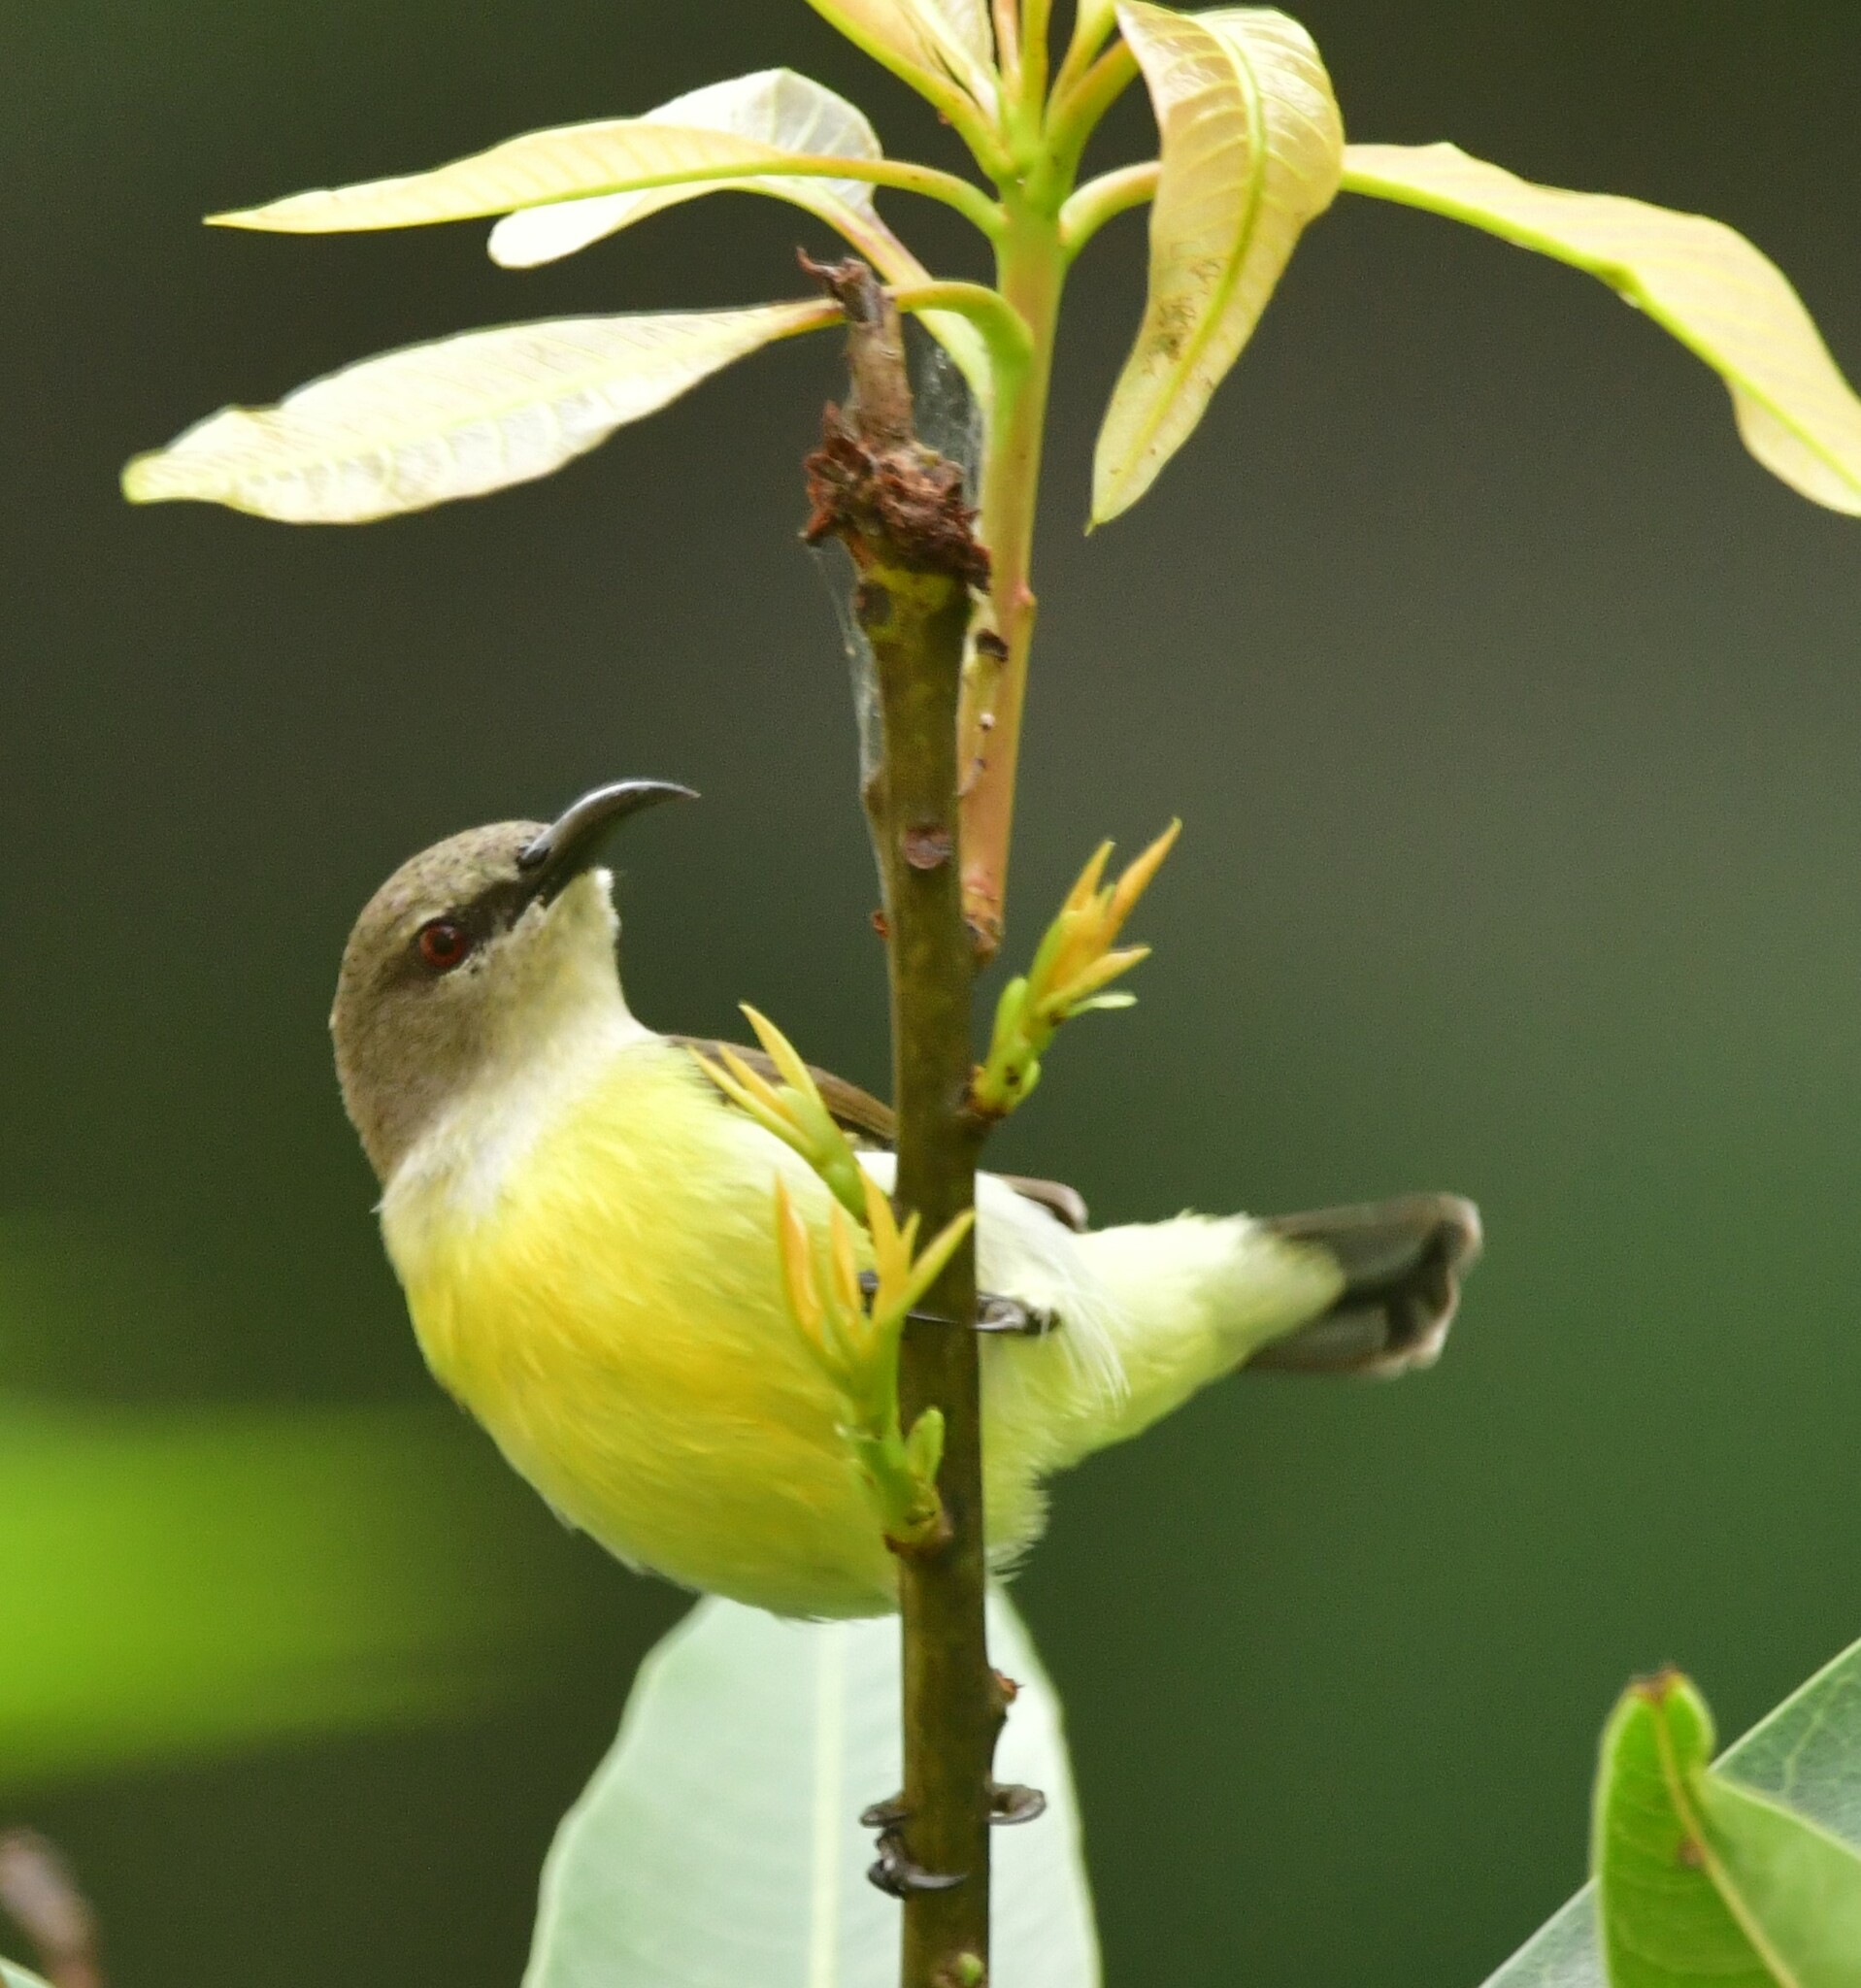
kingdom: Animalia
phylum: Chordata
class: Aves
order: Passeriformes
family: Nectariniidae
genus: Leptocoma
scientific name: Leptocoma zeylonica
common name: Purple-rumped sunbird
